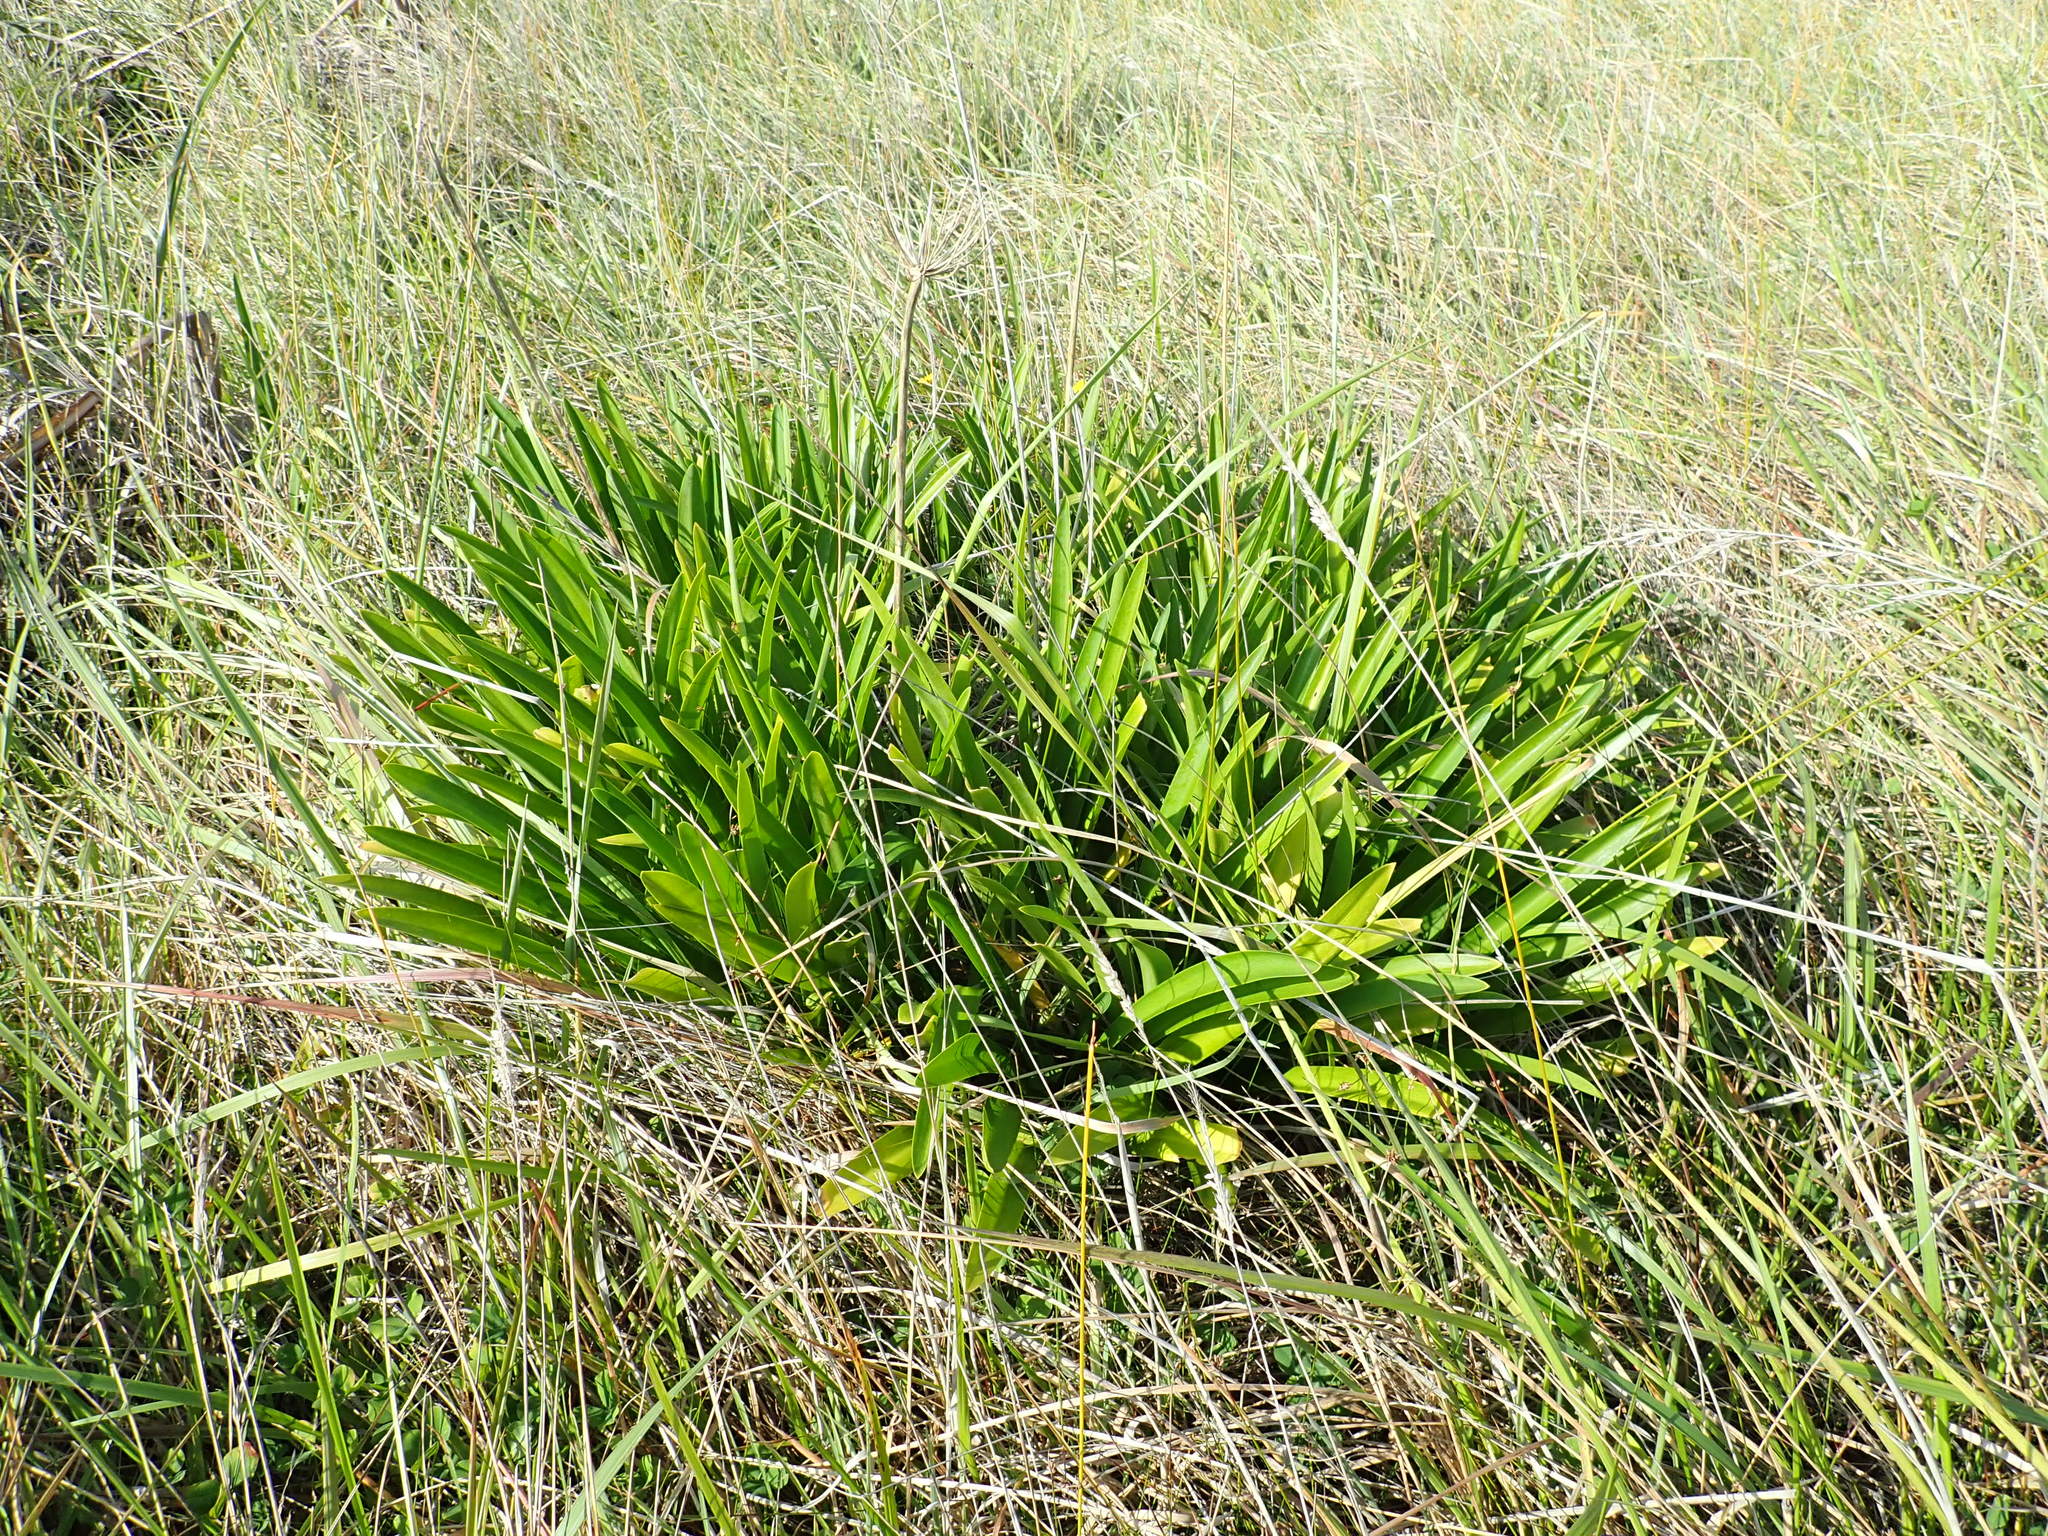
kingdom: Plantae
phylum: Tracheophyta
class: Liliopsida
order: Asparagales
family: Amaryllidaceae
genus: Agapanthus
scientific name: Agapanthus praecox
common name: African-lily
